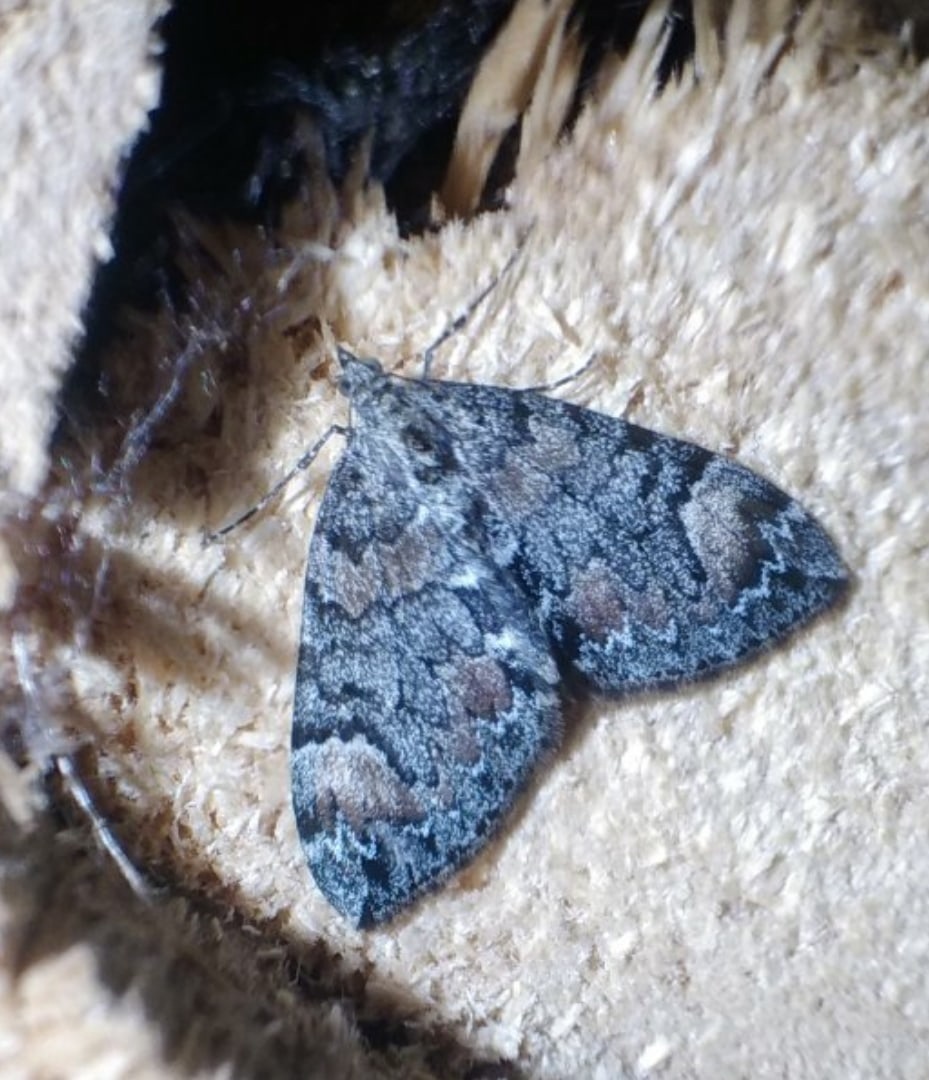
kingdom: Animalia
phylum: Arthropoda
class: Insecta
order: Lepidoptera
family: Geometridae
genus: Dysstroma
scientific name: Dysstroma citrata
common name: Dark marbled carpet
